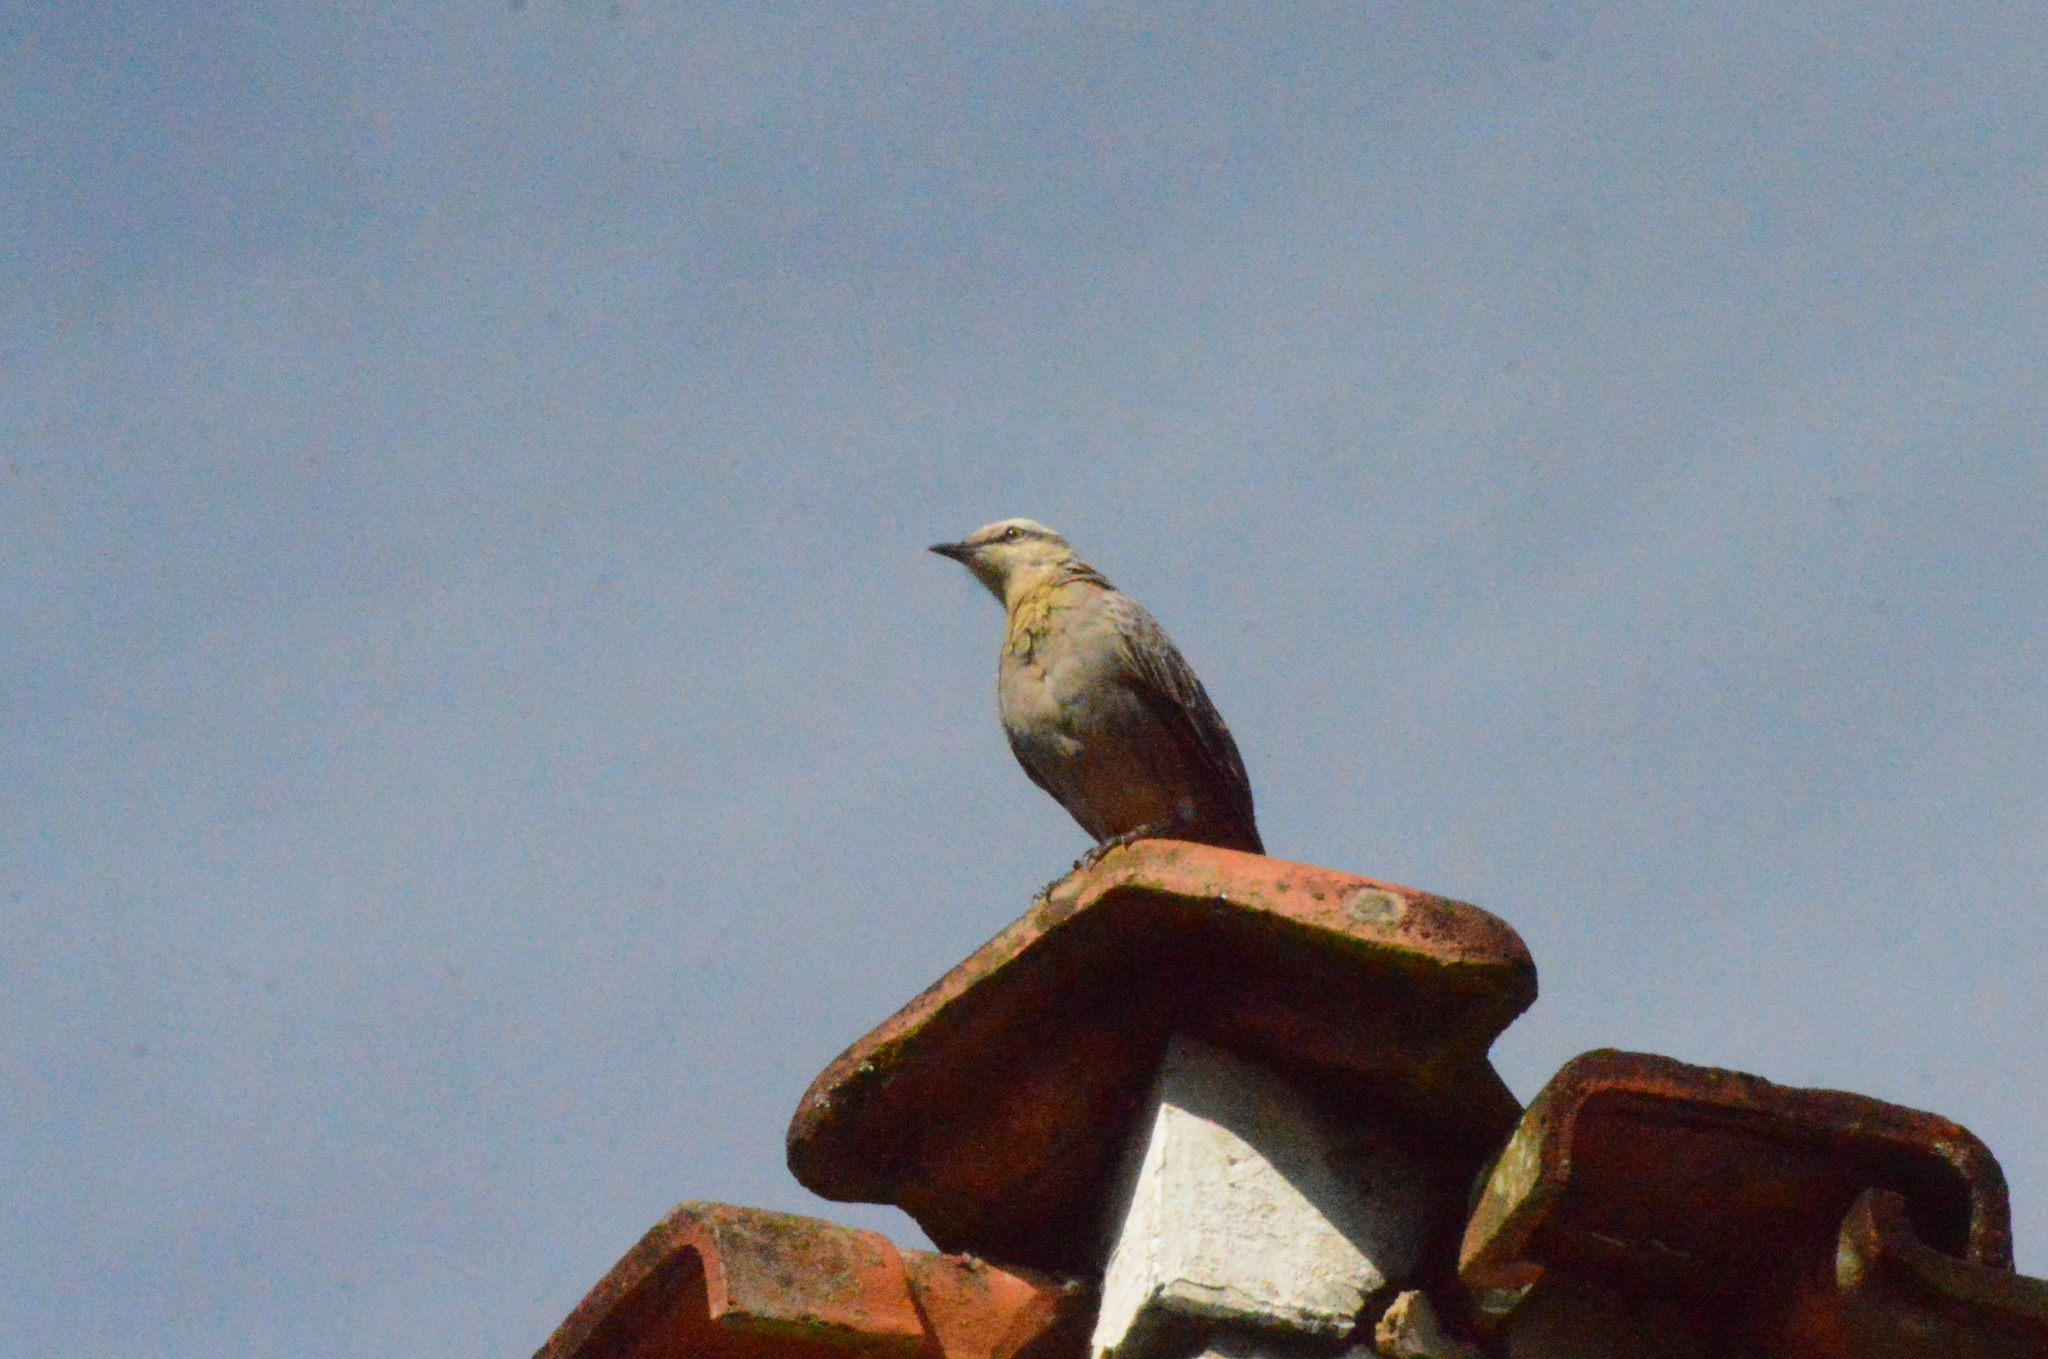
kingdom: Animalia
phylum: Chordata
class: Aves
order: Passeriformes
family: Mimidae
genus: Mimus
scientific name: Mimus saturninus
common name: Chalk-browed mockingbird
